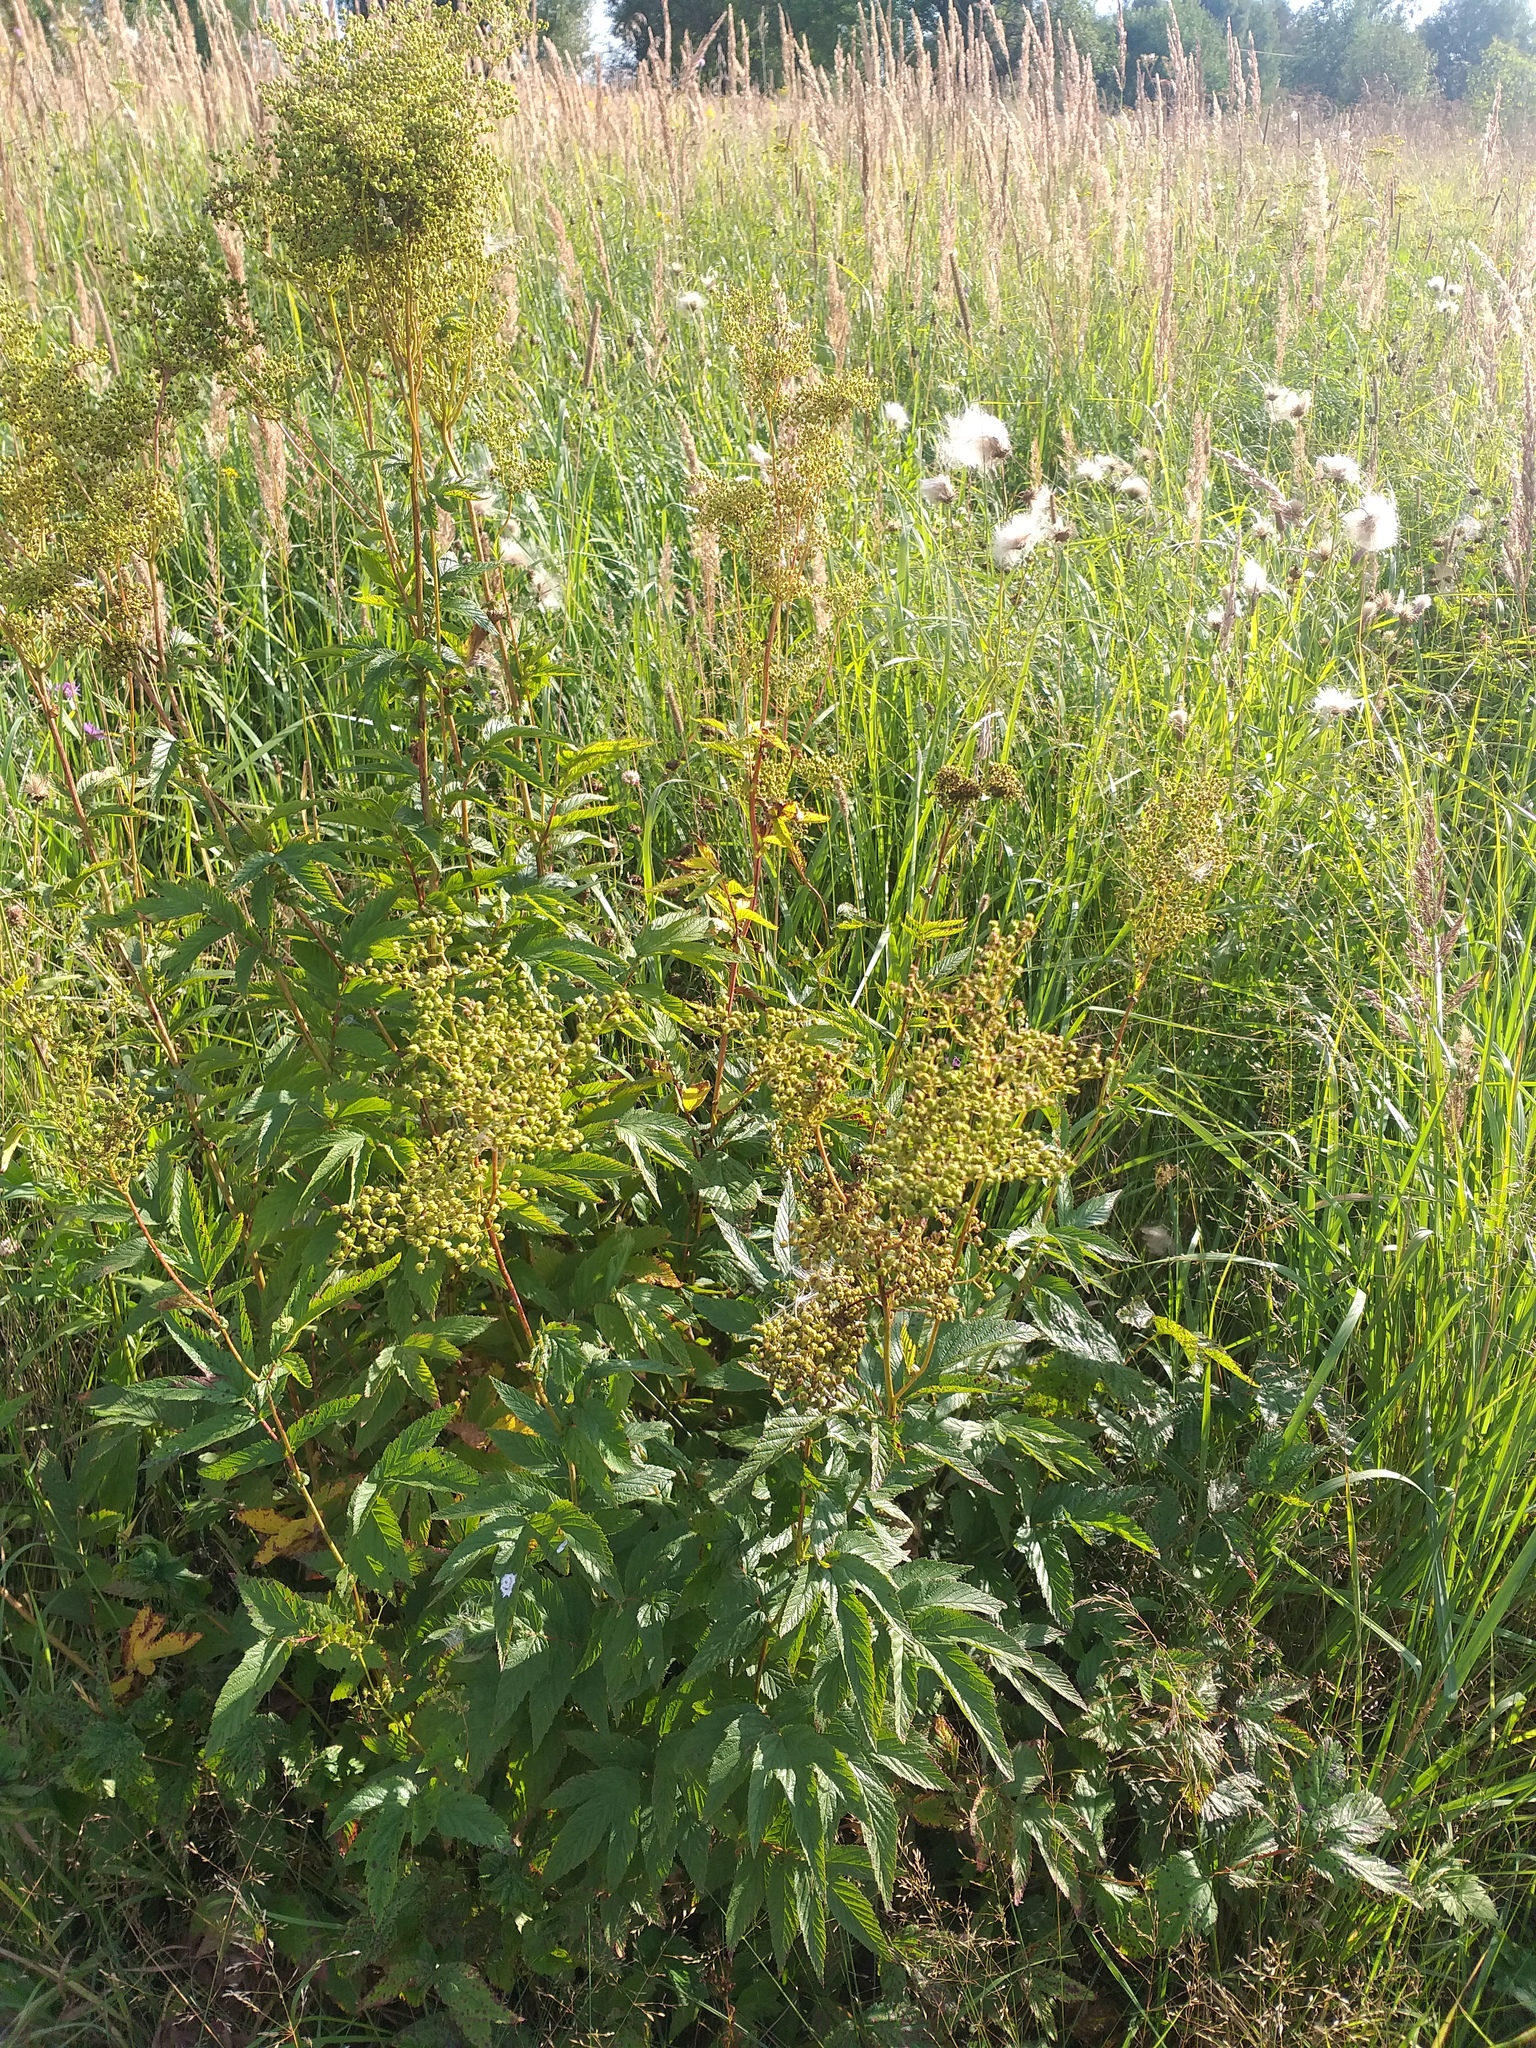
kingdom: Plantae
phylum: Tracheophyta
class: Magnoliopsida
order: Rosales
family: Rosaceae
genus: Filipendula
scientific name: Filipendula ulmaria
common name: Meadowsweet
